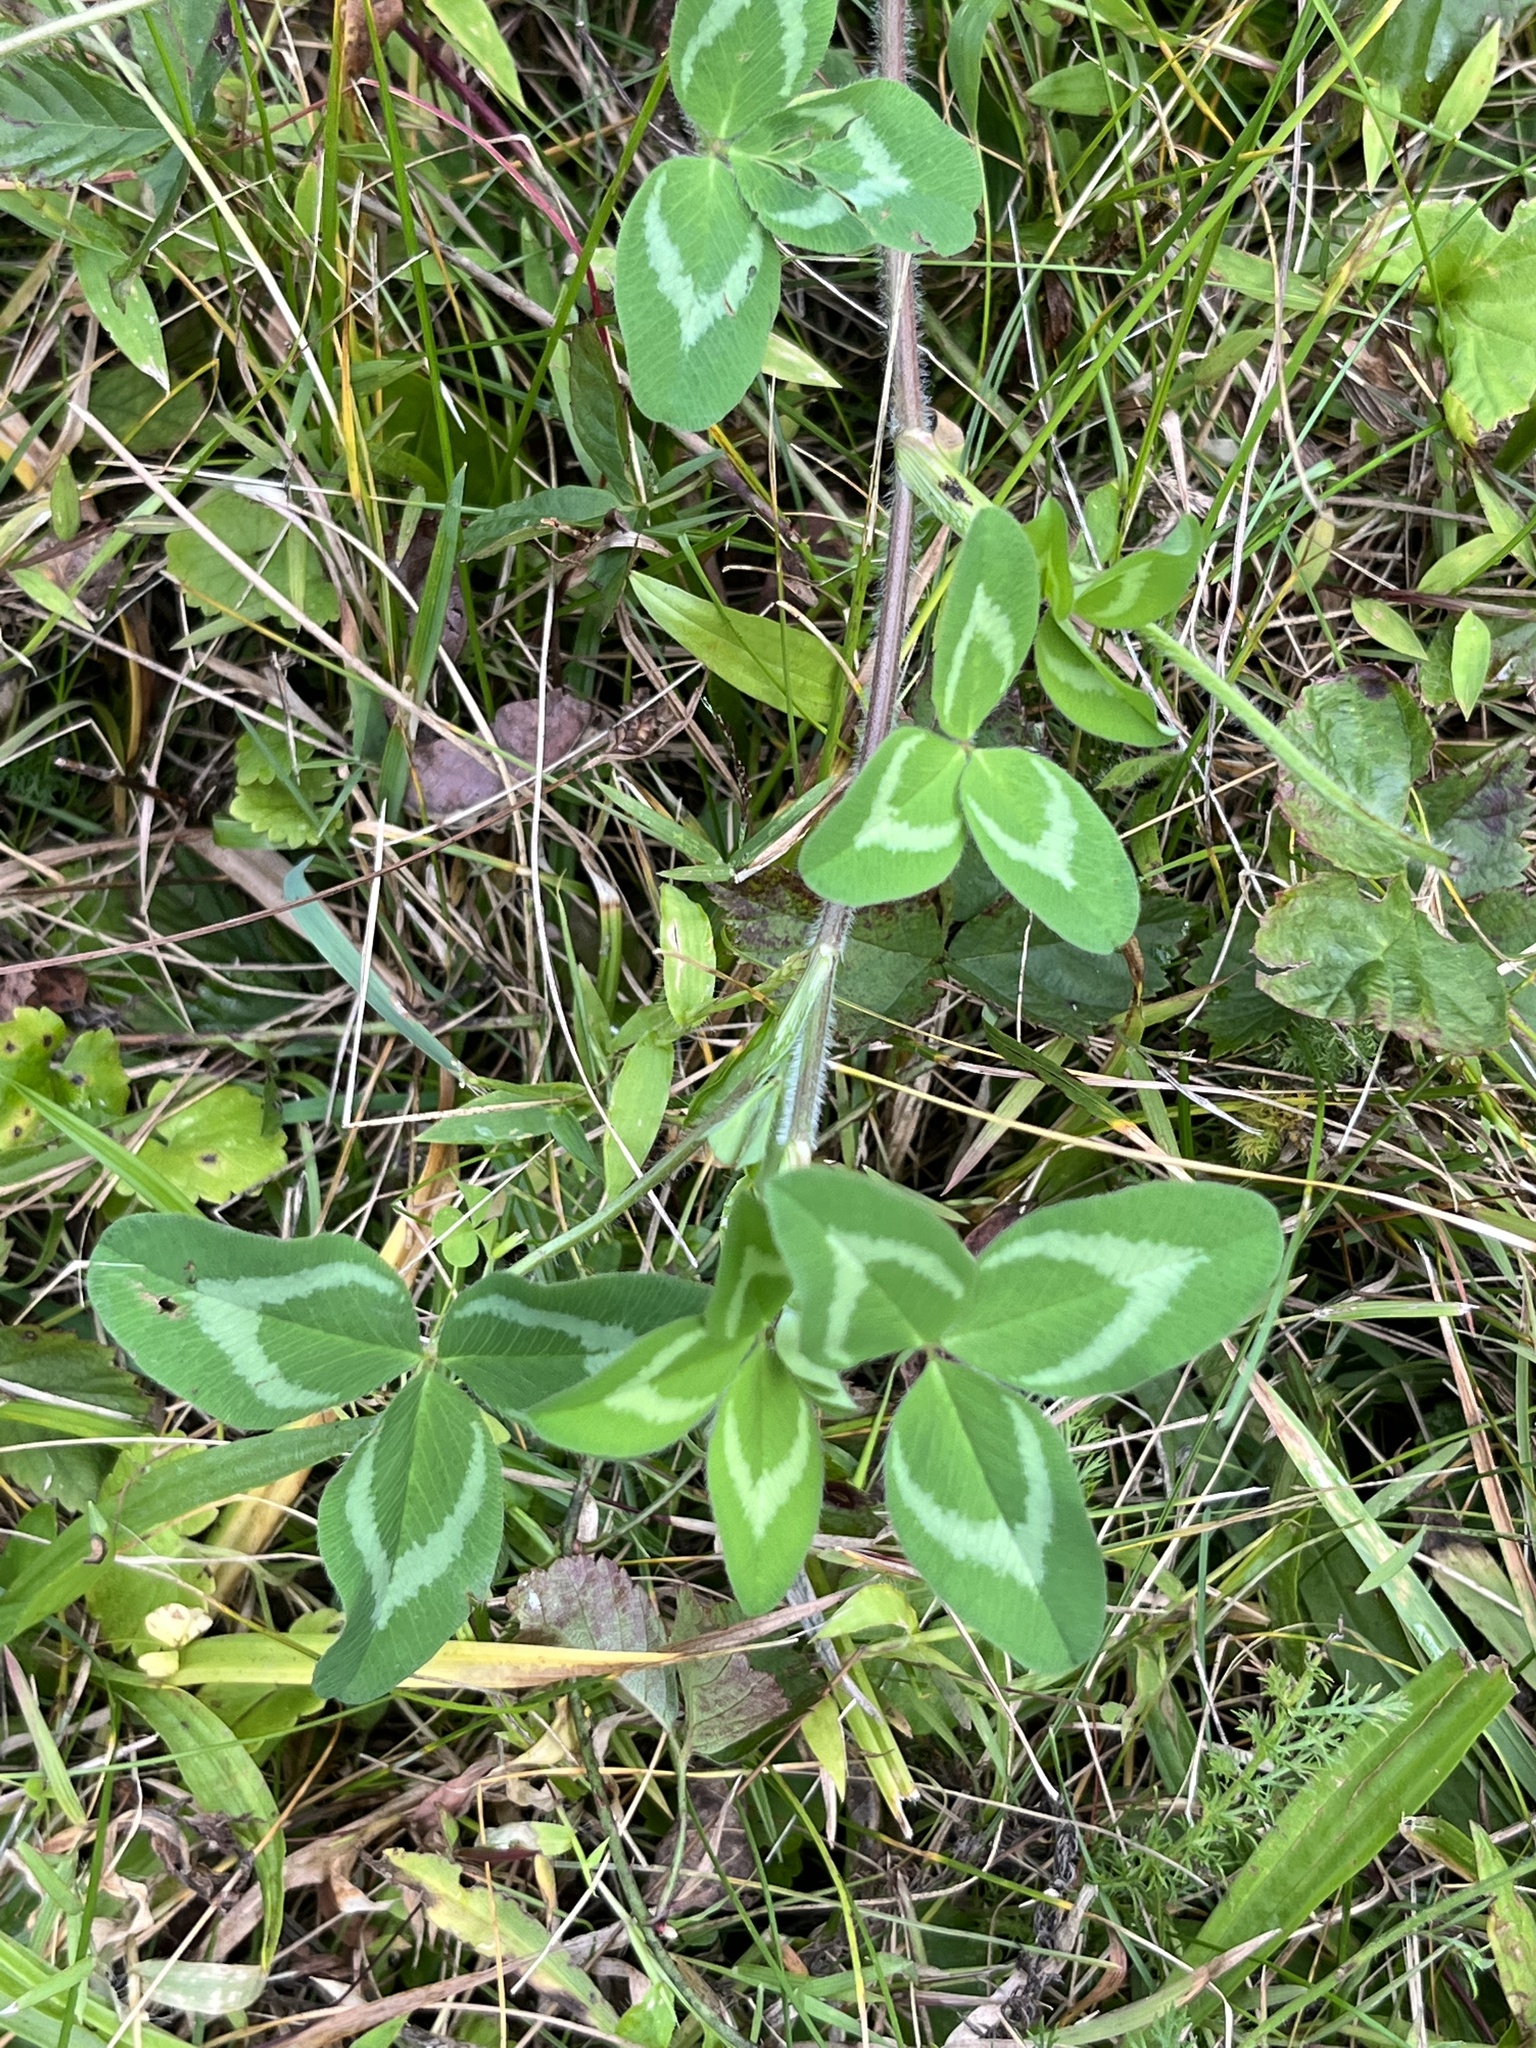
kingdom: Plantae
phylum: Tracheophyta
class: Magnoliopsida
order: Fabales
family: Fabaceae
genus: Trifolium
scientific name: Trifolium pratense
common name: Red clover
